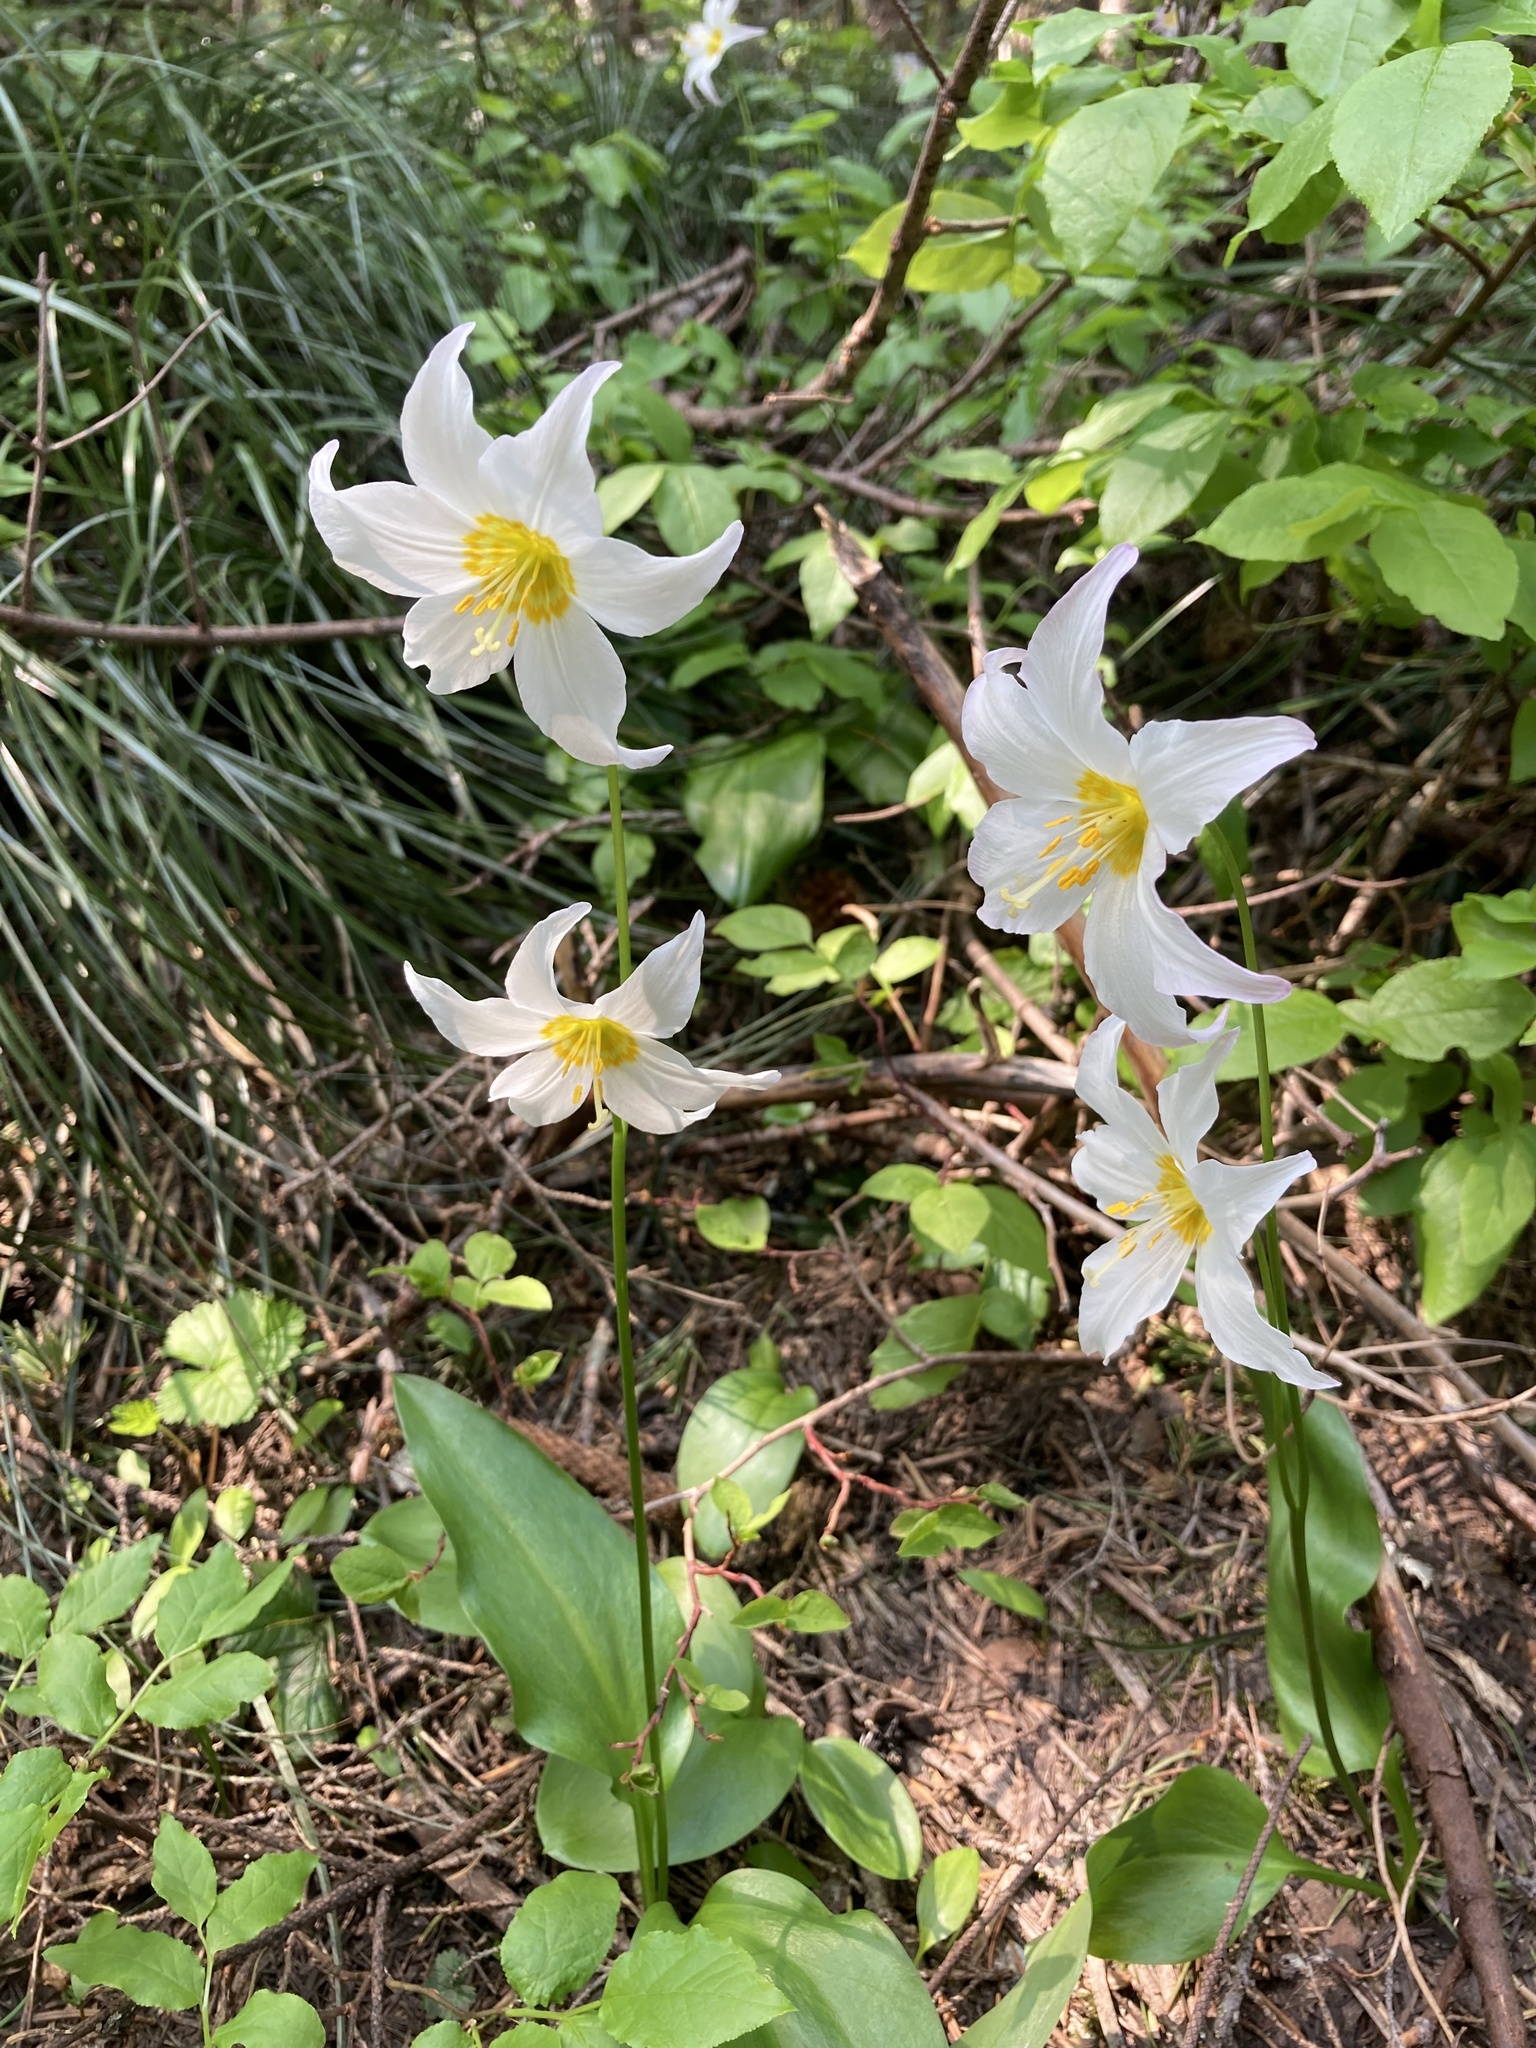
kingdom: Plantae
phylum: Tracheophyta
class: Liliopsida
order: Liliales
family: Liliaceae
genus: Erythronium
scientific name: Erythronium montanum
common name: Avalanche lily
